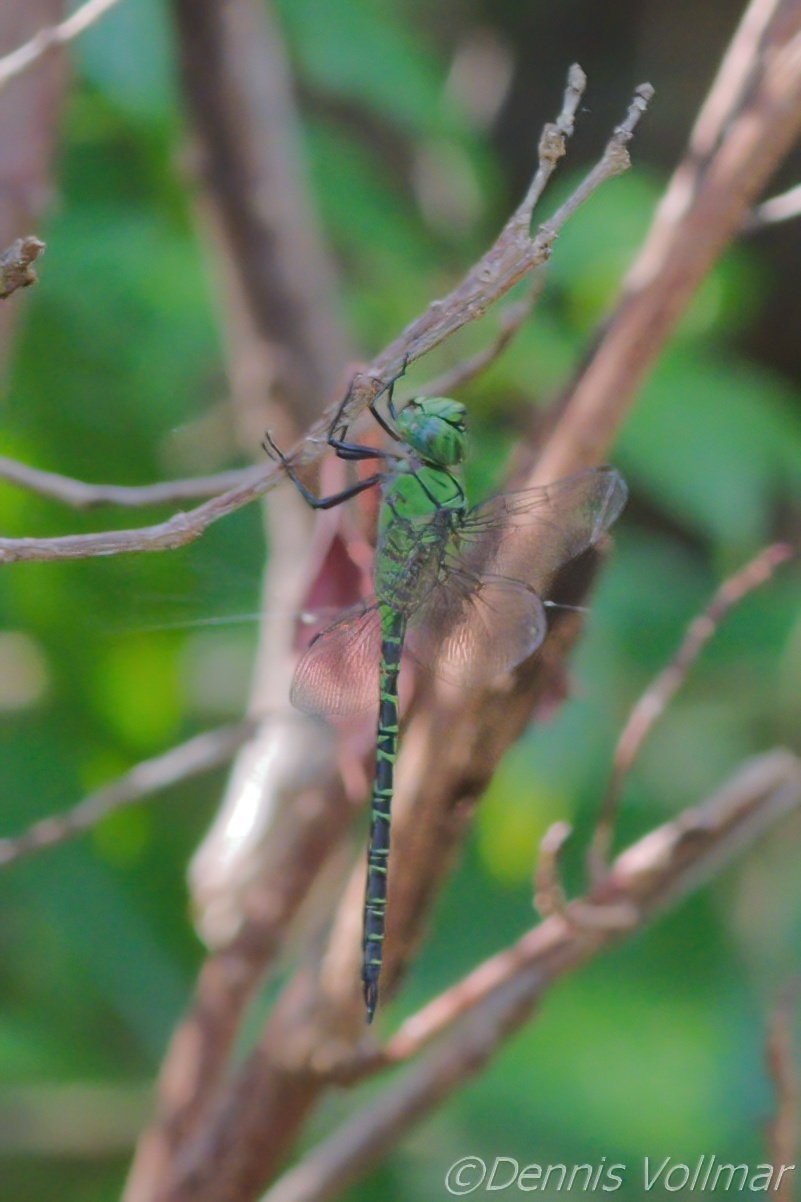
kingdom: Animalia
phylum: Arthropoda
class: Insecta
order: Odonata
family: Aeshnidae
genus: Coryphaeschna
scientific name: Coryphaeschna viriditas
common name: Mangrove darner
